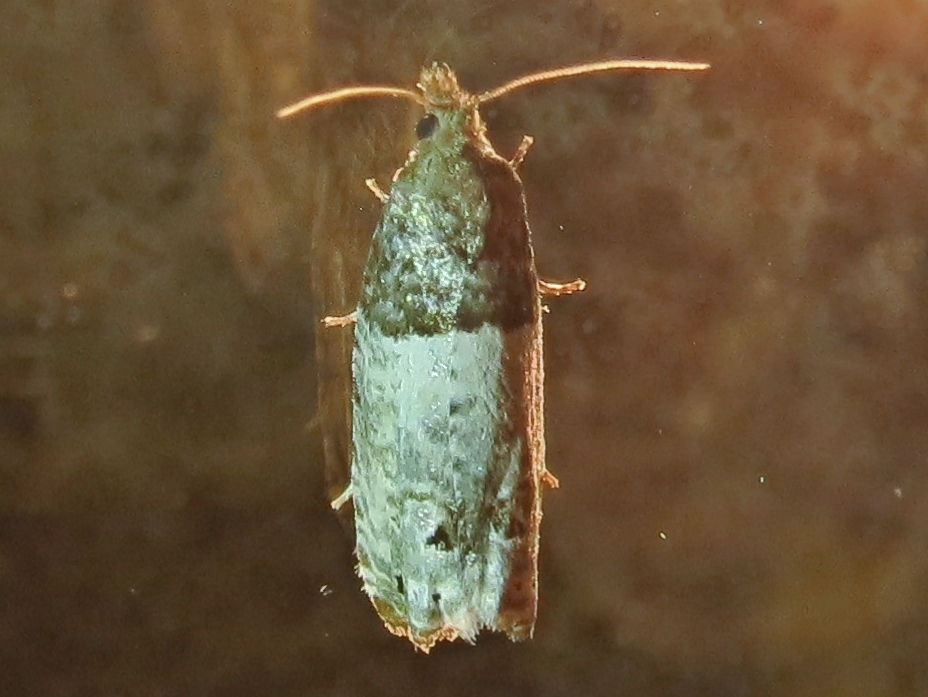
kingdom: Animalia
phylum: Arthropoda
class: Insecta
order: Lepidoptera
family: Tortricidae
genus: Epiblema
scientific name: Epiblema aquana
